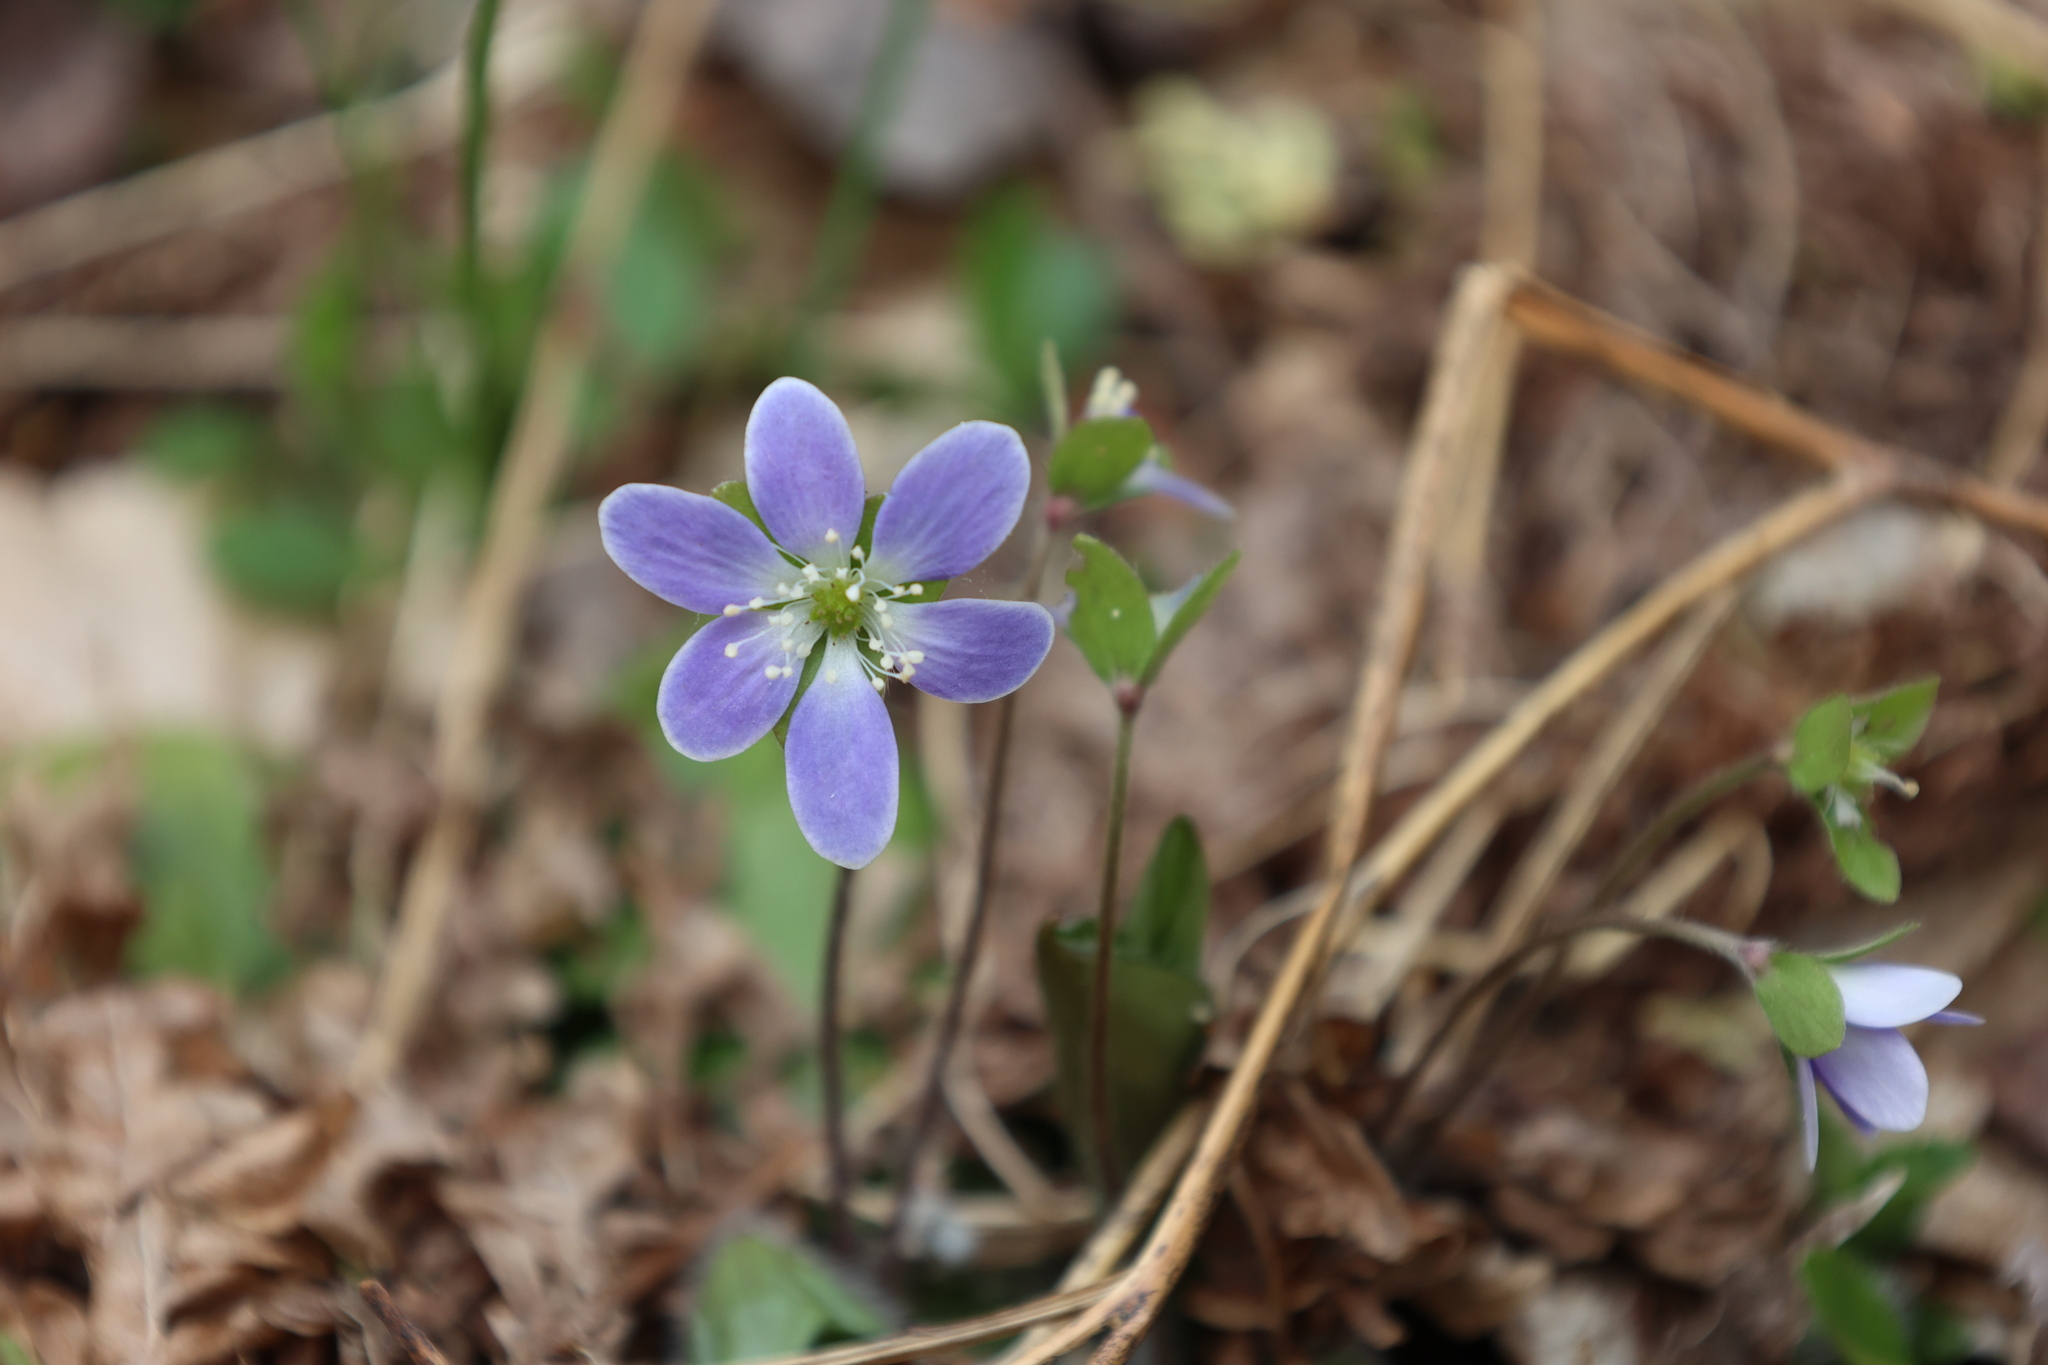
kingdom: Plantae
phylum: Tracheophyta
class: Magnoliopsida
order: Ranunculales
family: Ranunculaceae
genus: Hepatica
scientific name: Hepatica
